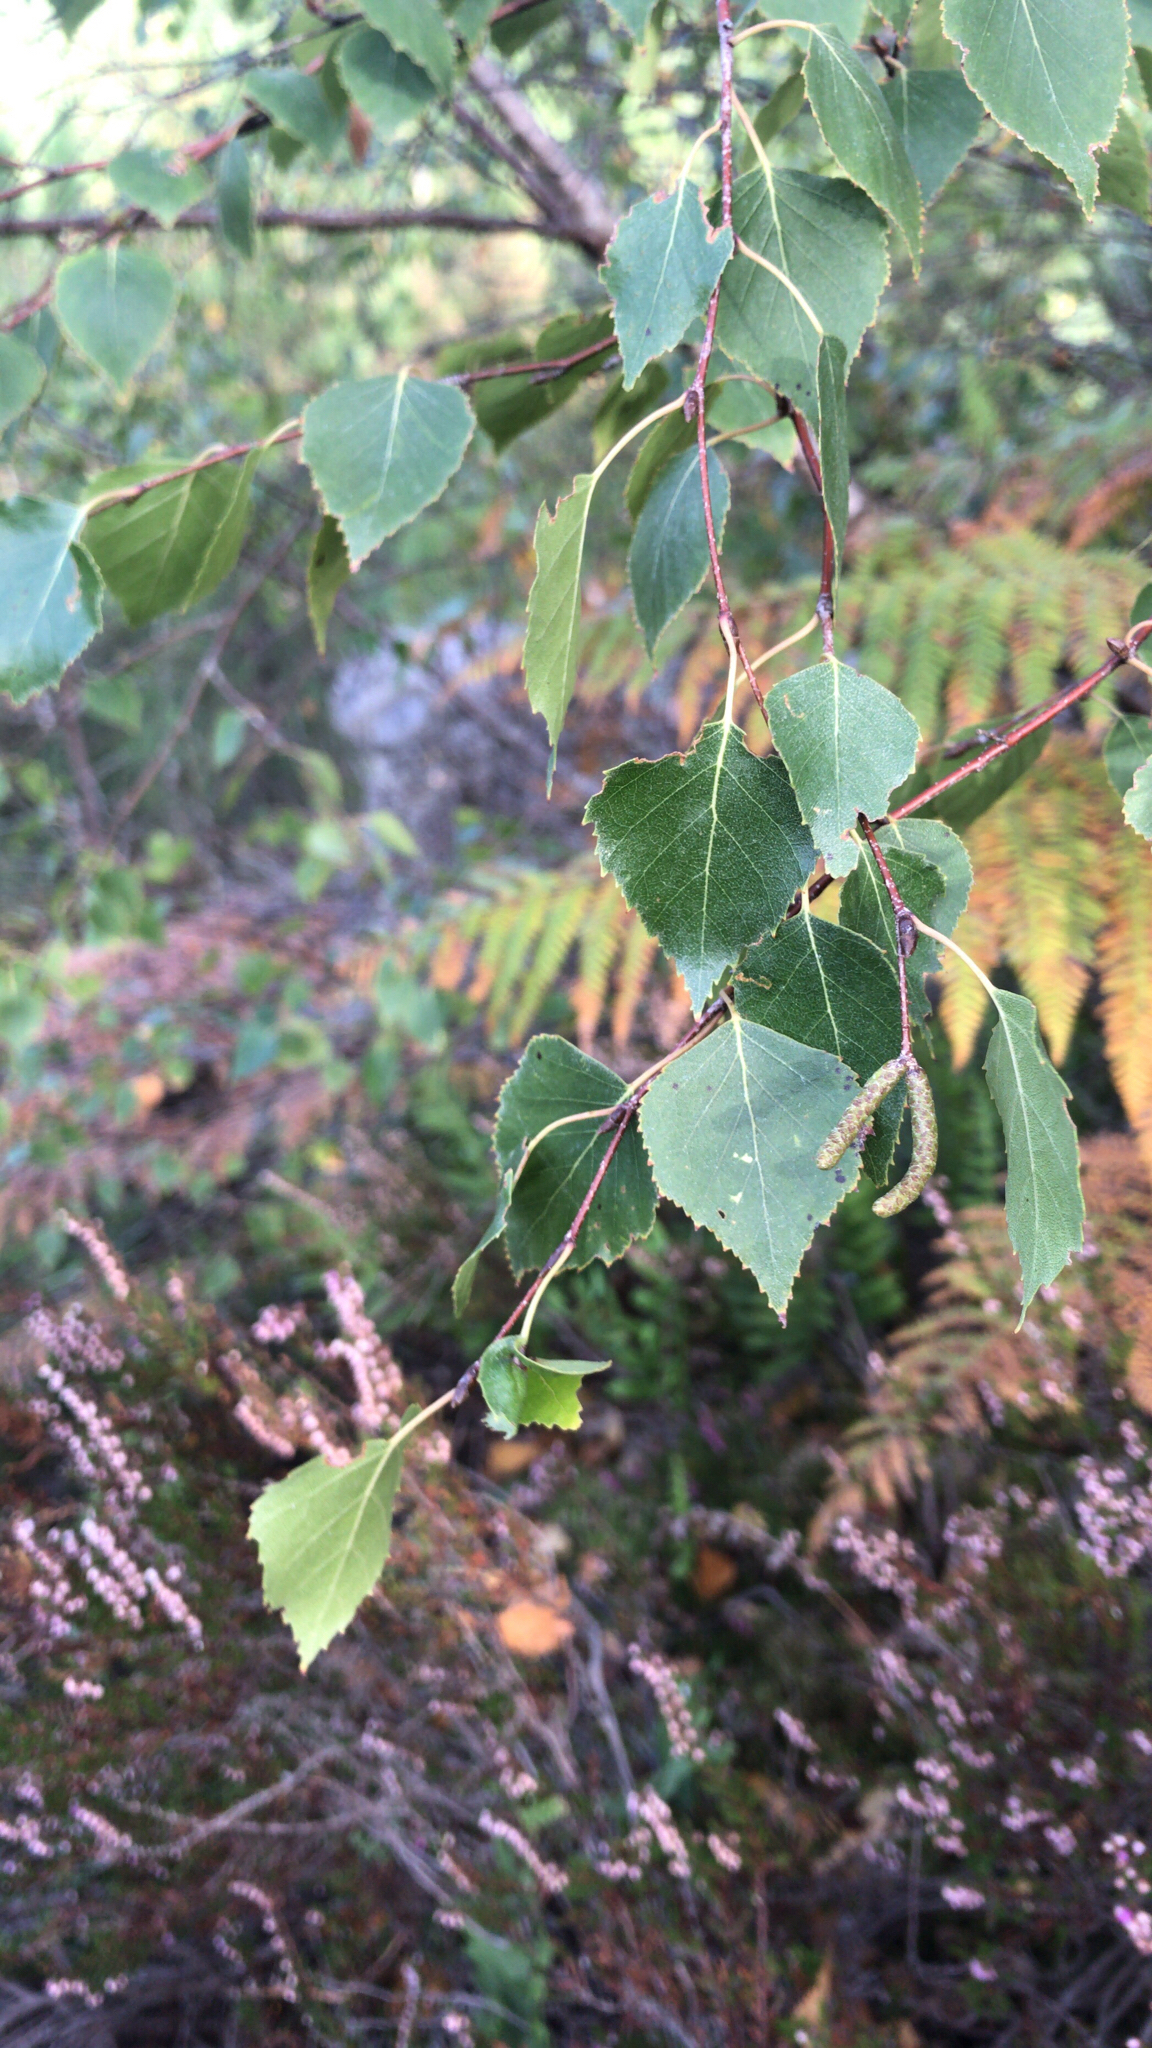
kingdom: Plantae
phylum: Tracheophyta
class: Magnoliopsida
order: Fagales
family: Betulaceae
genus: Betula
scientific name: Betula pendula
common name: Silver birch
